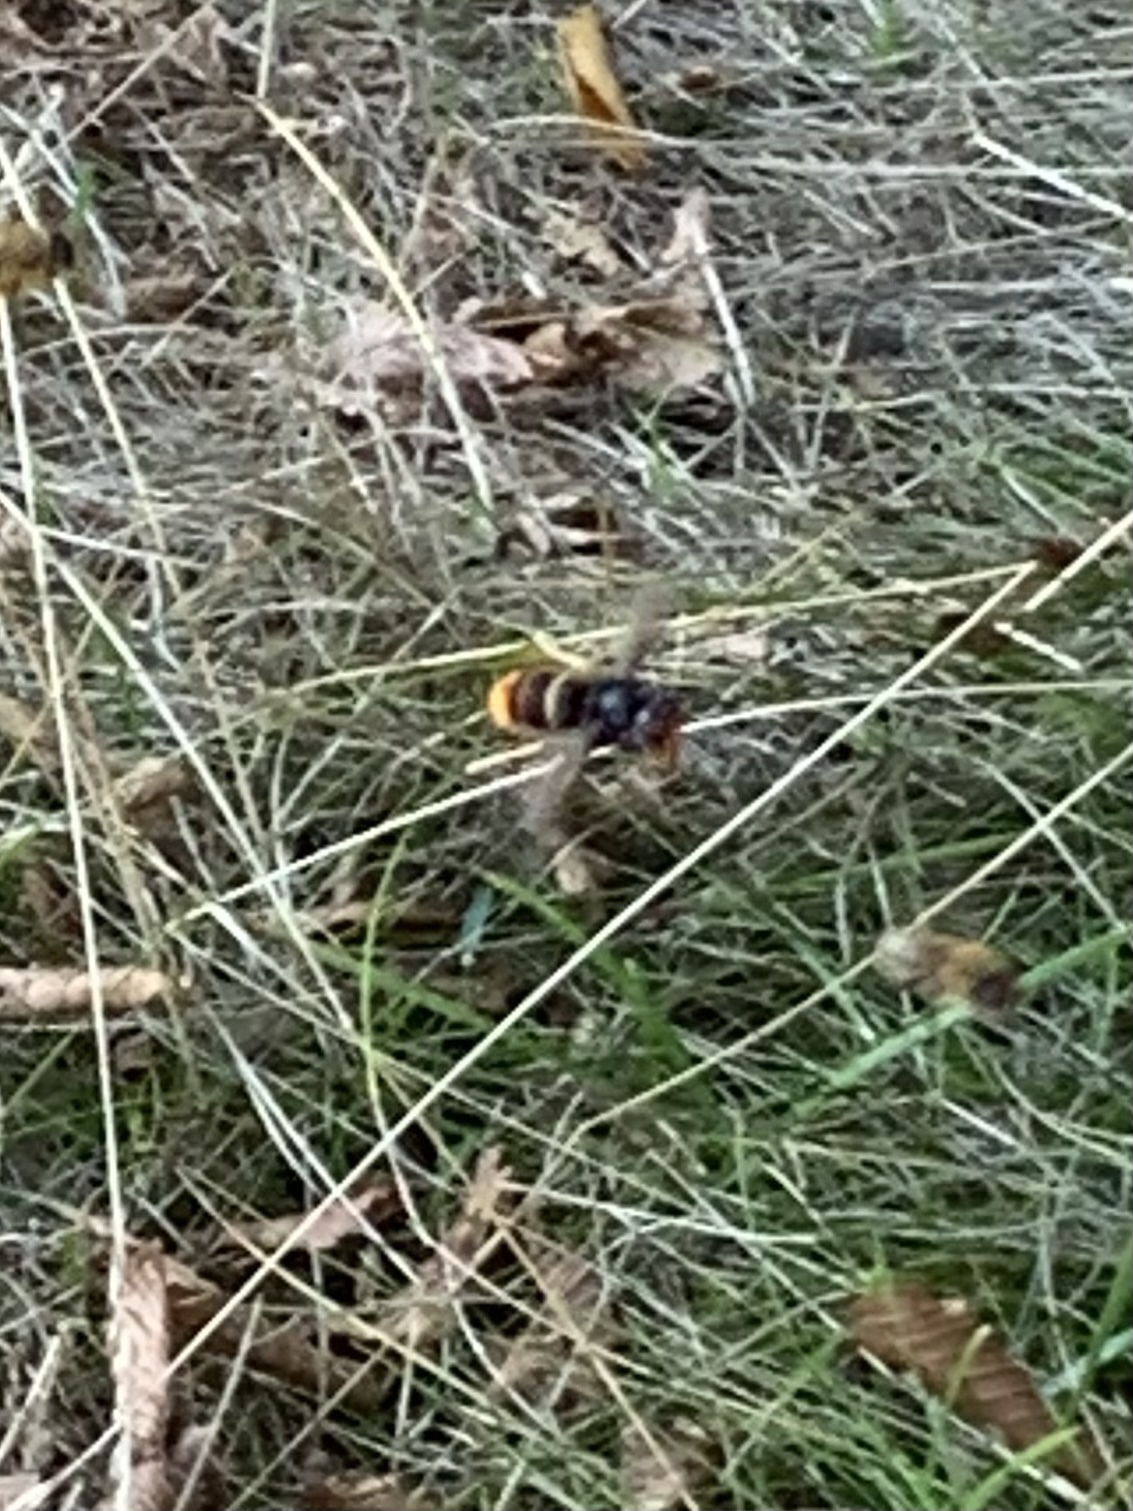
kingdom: Animalia
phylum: Arthropoda
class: Insecta
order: Hymenoptera
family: Vespidae
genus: Vespa
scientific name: Vespa velutina
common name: Asian hornet
